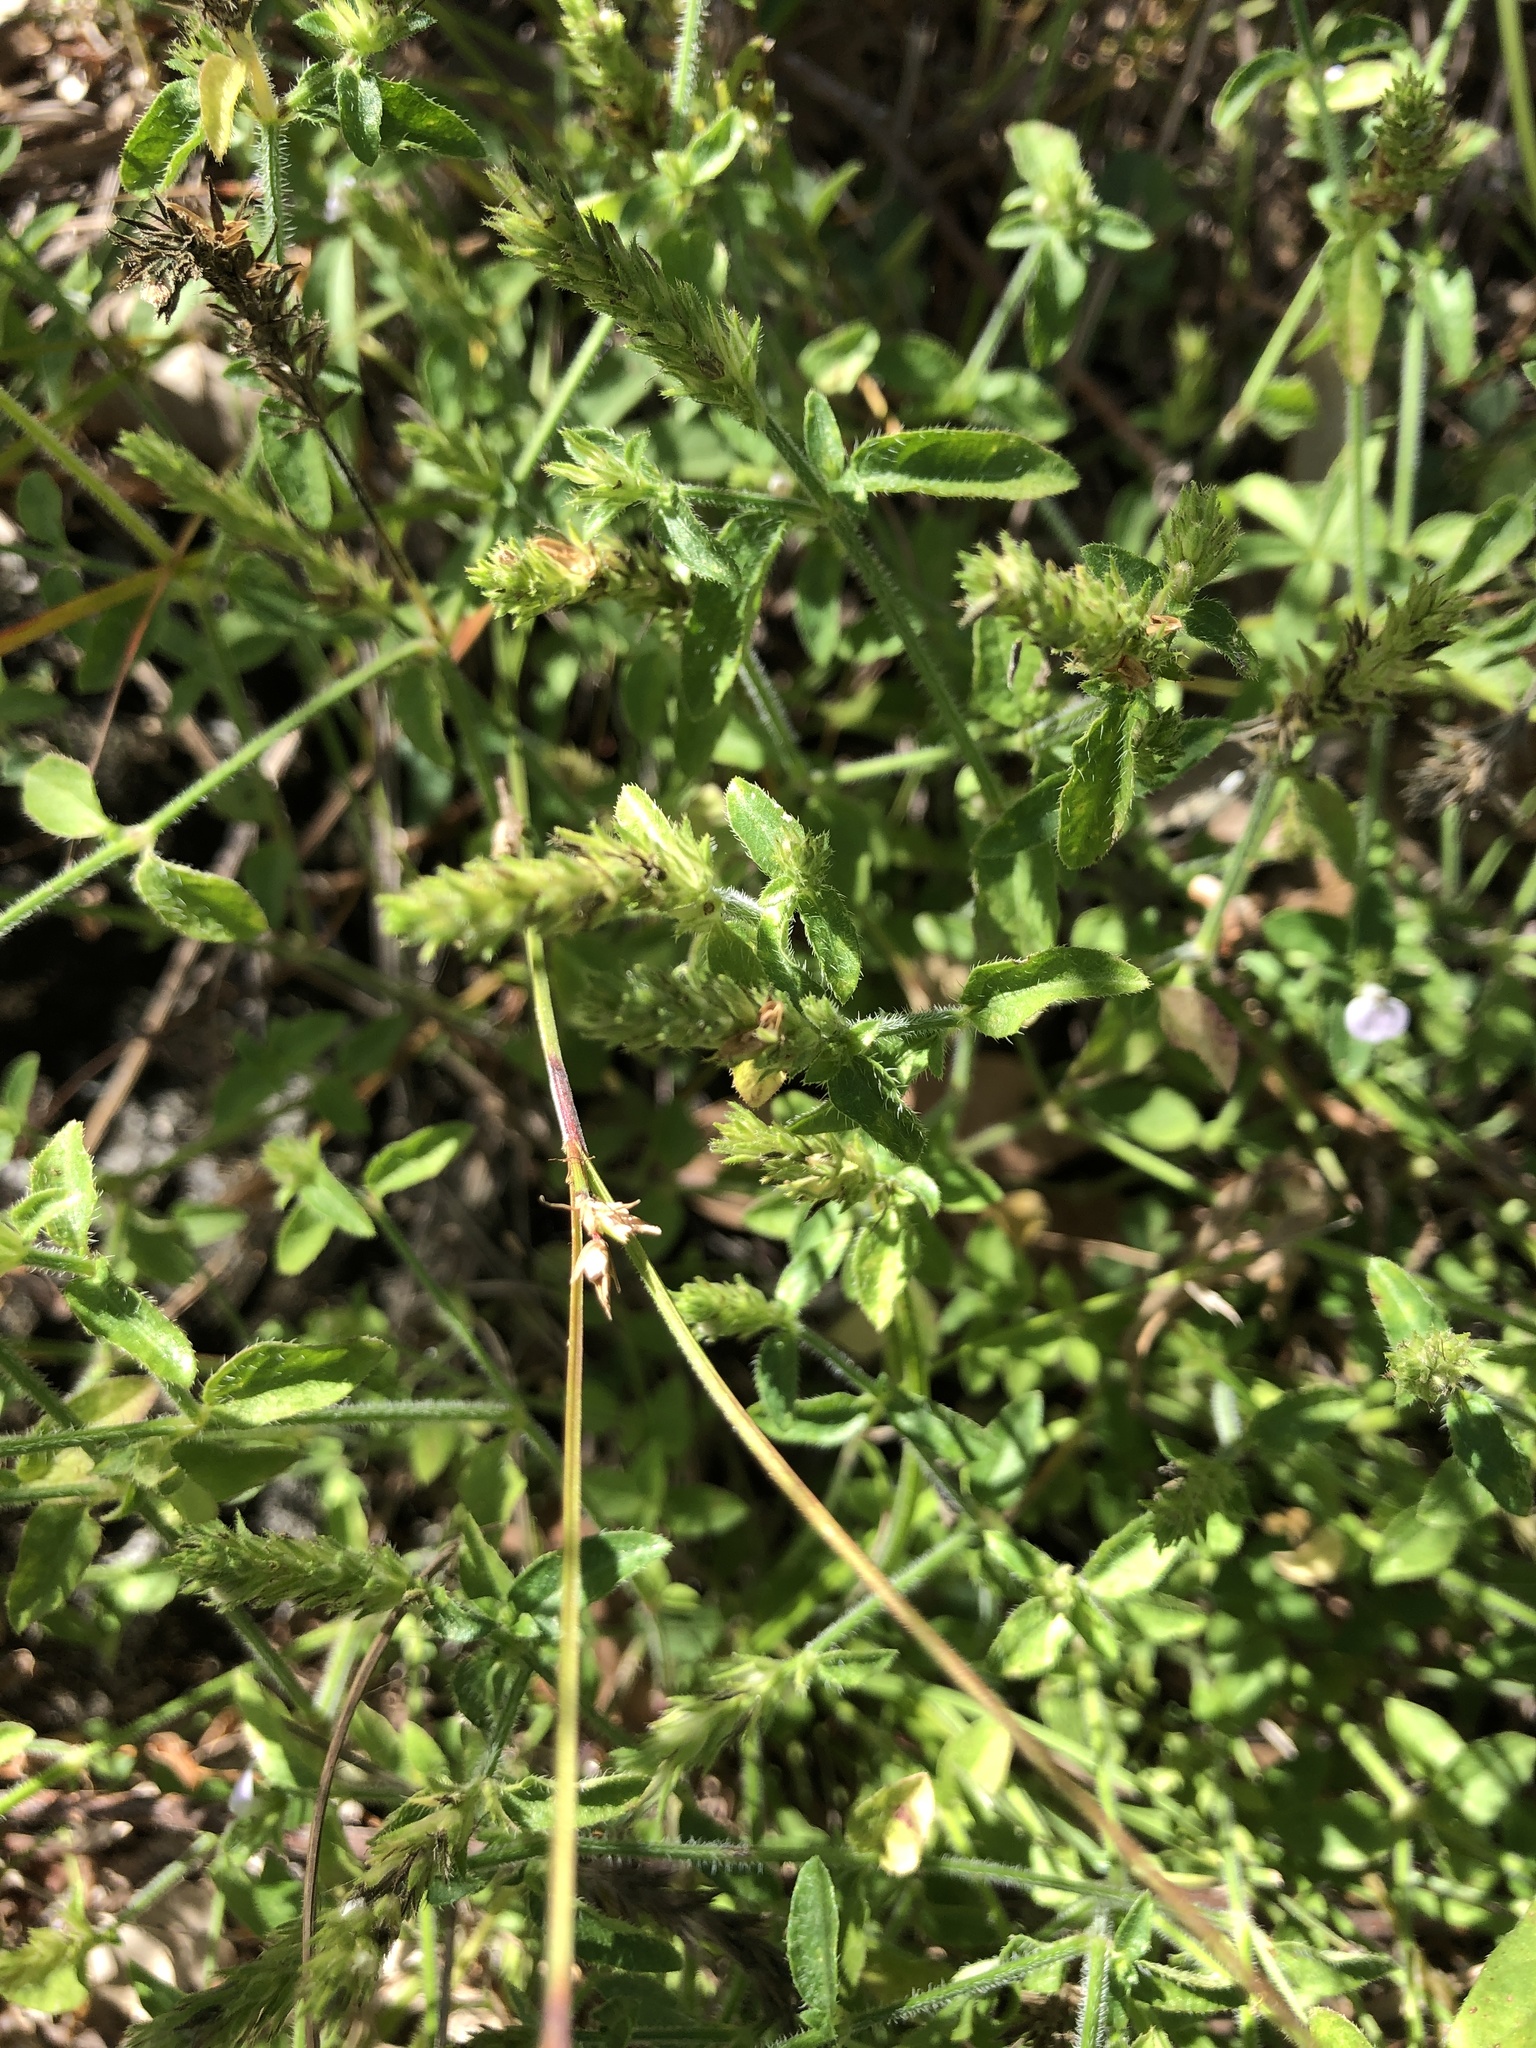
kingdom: Plantae
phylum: Tracheophyta
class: Magnoliopsida
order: Lamiales
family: Acanthaceae
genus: Rostellularia
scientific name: Rostellularia adscendens
